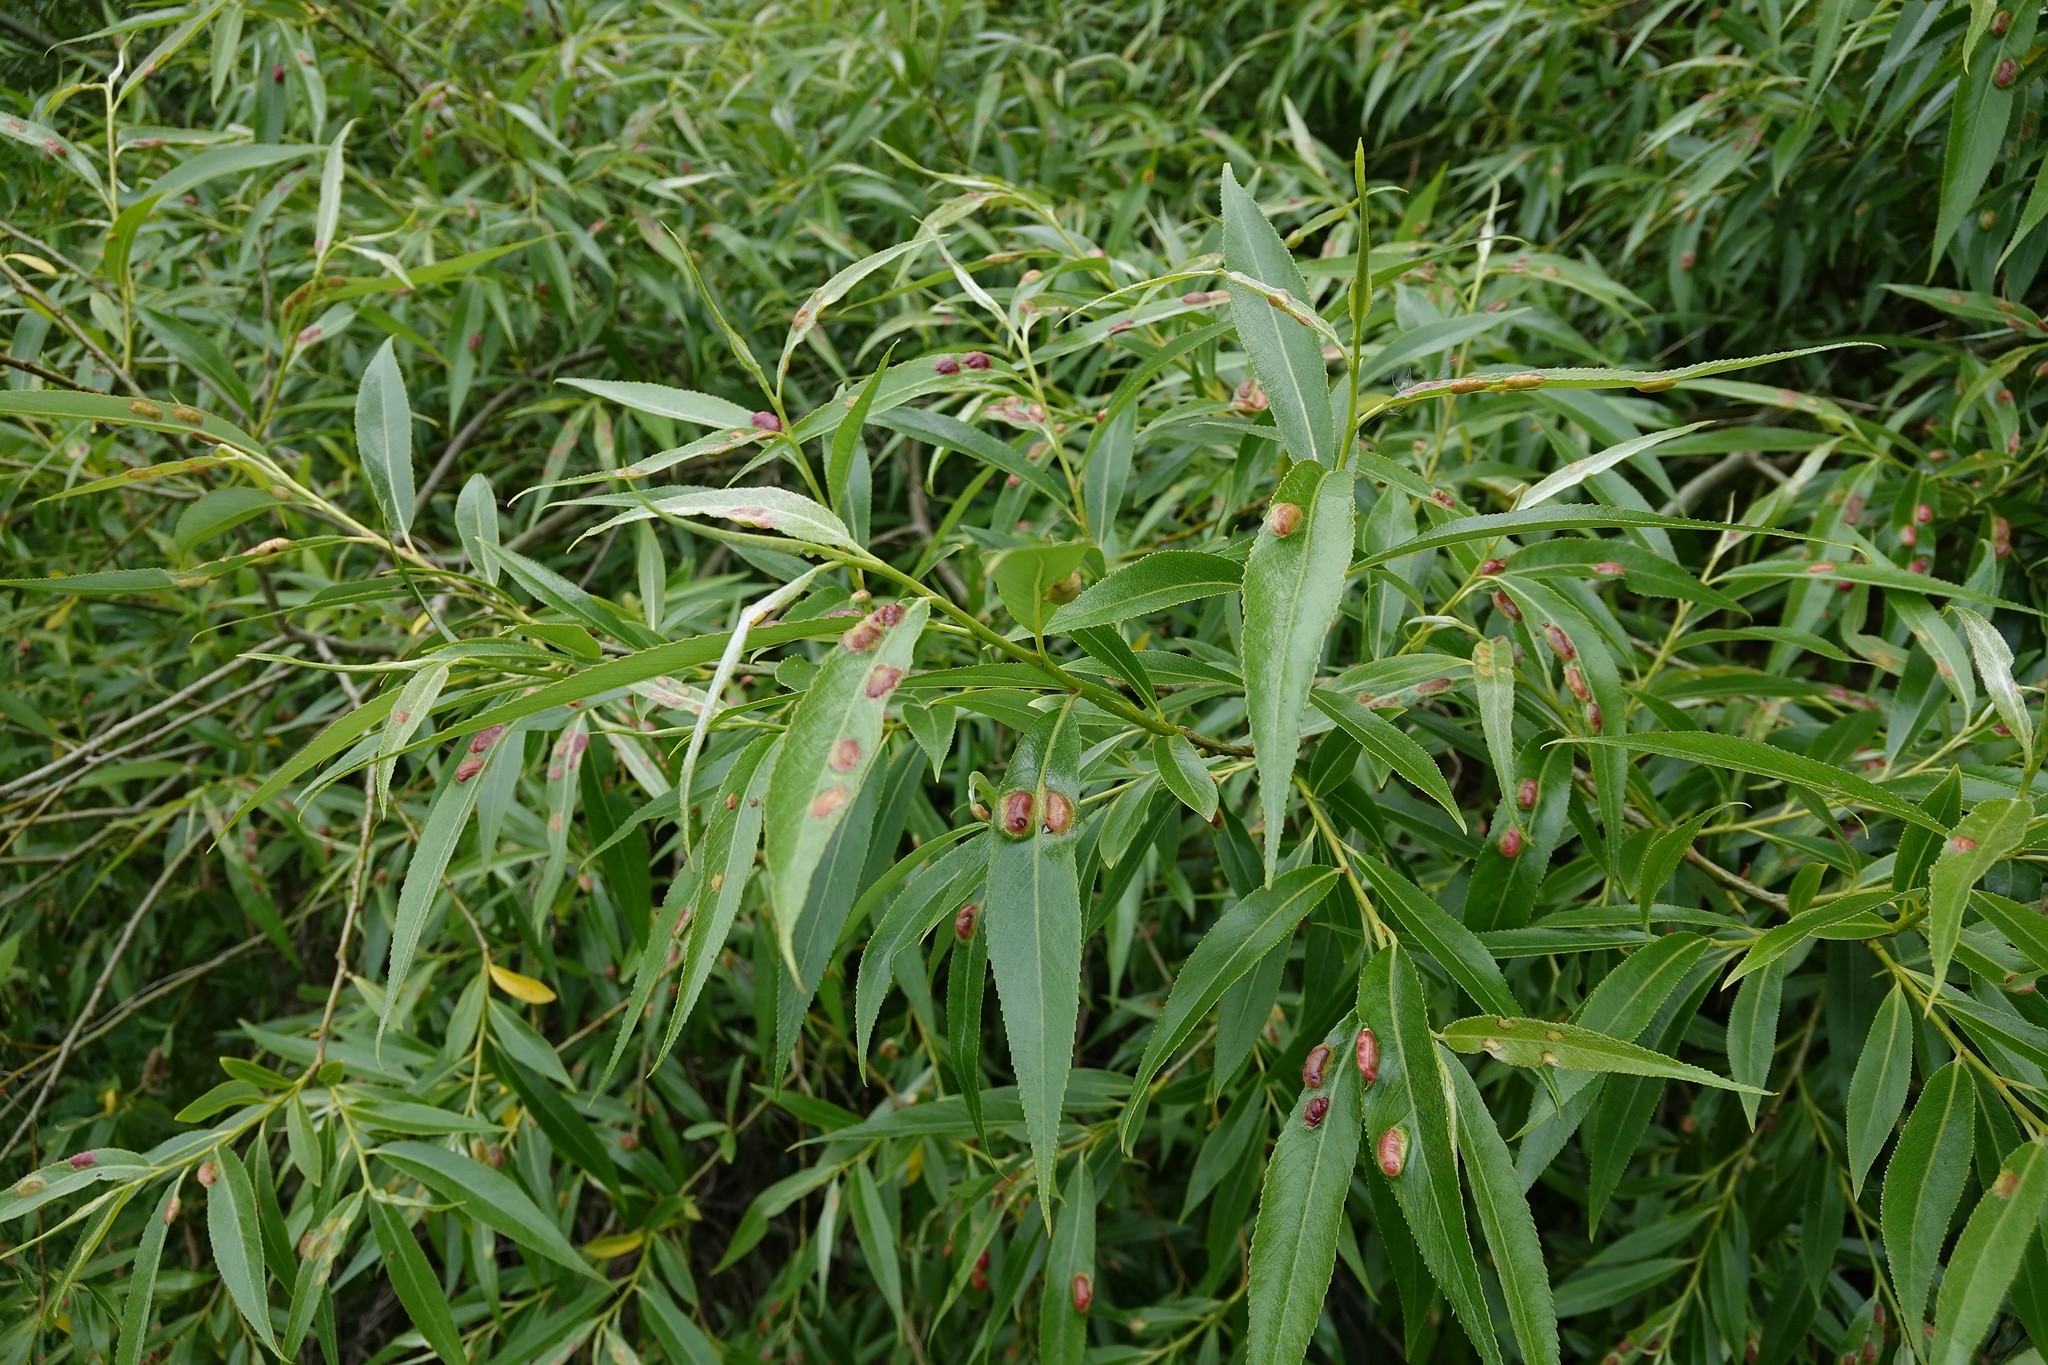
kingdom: Animalia
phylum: Arthropoda
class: Insecta
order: Hymenoptera
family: Tenthredinidae
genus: Pontania
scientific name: Pontania proxima
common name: Common sawfly
